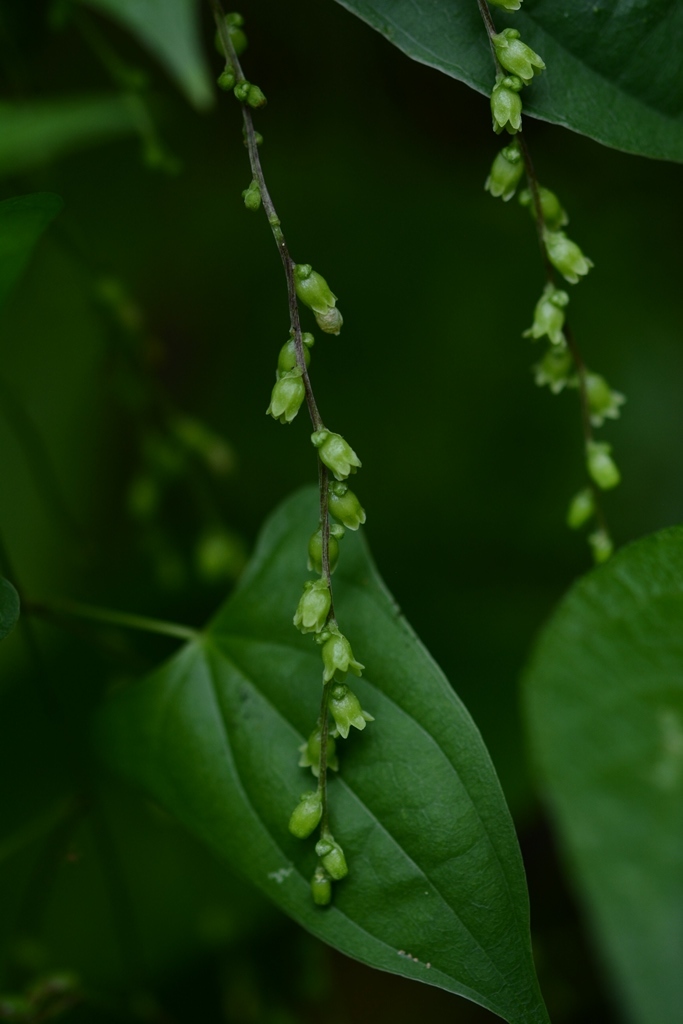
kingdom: Plantae
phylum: Tracheophyta
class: Liliopsida
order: Dioscoreales
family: Dioscoreaceae
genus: Dioscorea
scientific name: Dioscorea spiculiflora
